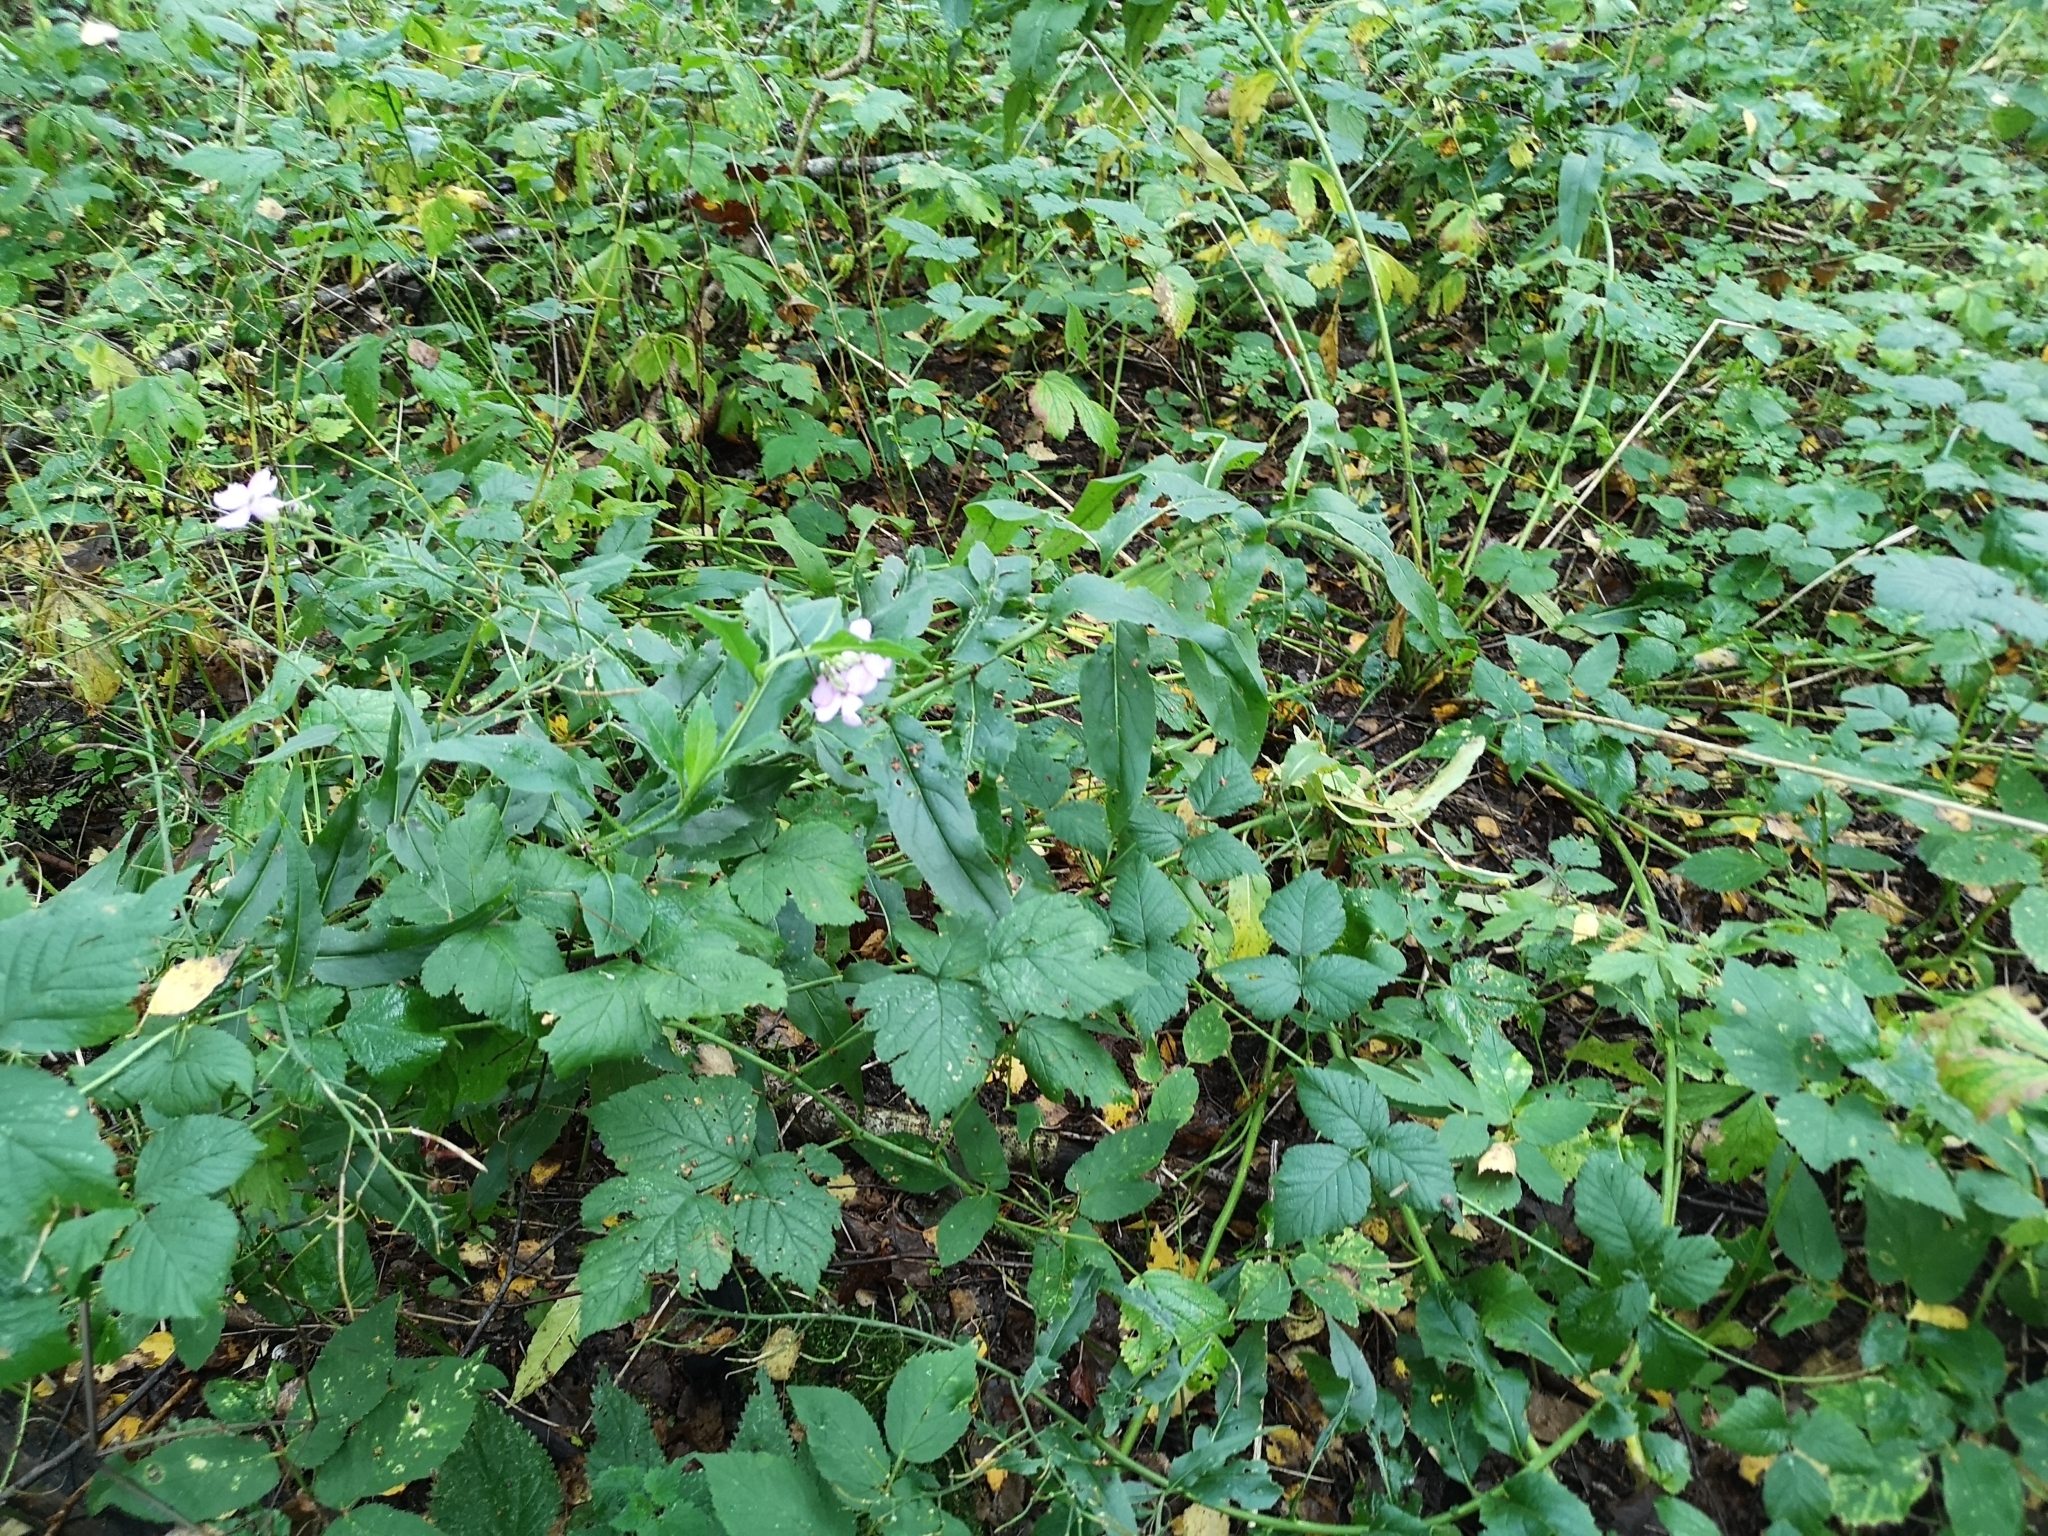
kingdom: Plantae
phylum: Tracheophyta
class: Magnoliopsida
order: Brassicales
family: Brassicaceae
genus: Hesperis
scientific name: Hesperis matronalis
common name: Dame's-violet
